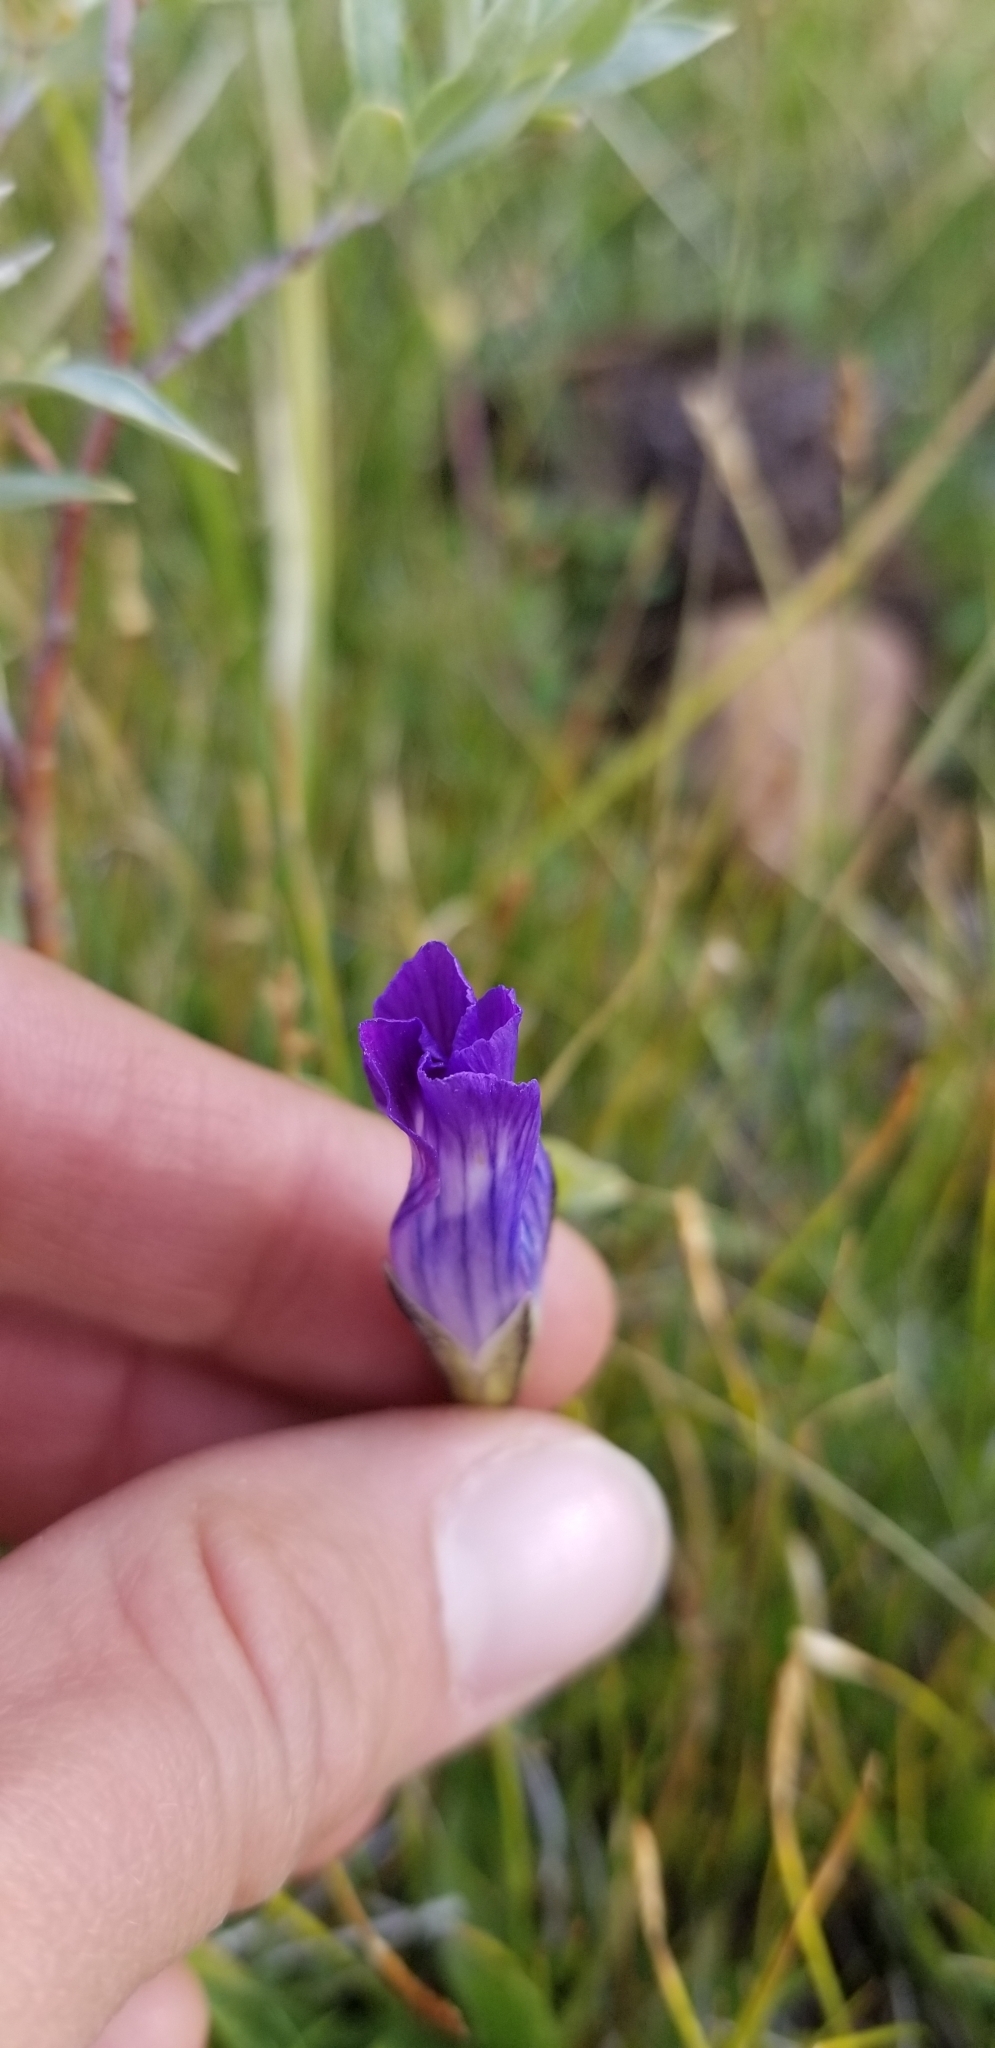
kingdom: Plantae
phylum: Tracheophyta
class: Magnoliopsida
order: Gentianales
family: Gentianaceae
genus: Gentianopsis
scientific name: Gentianopsis holopetala
